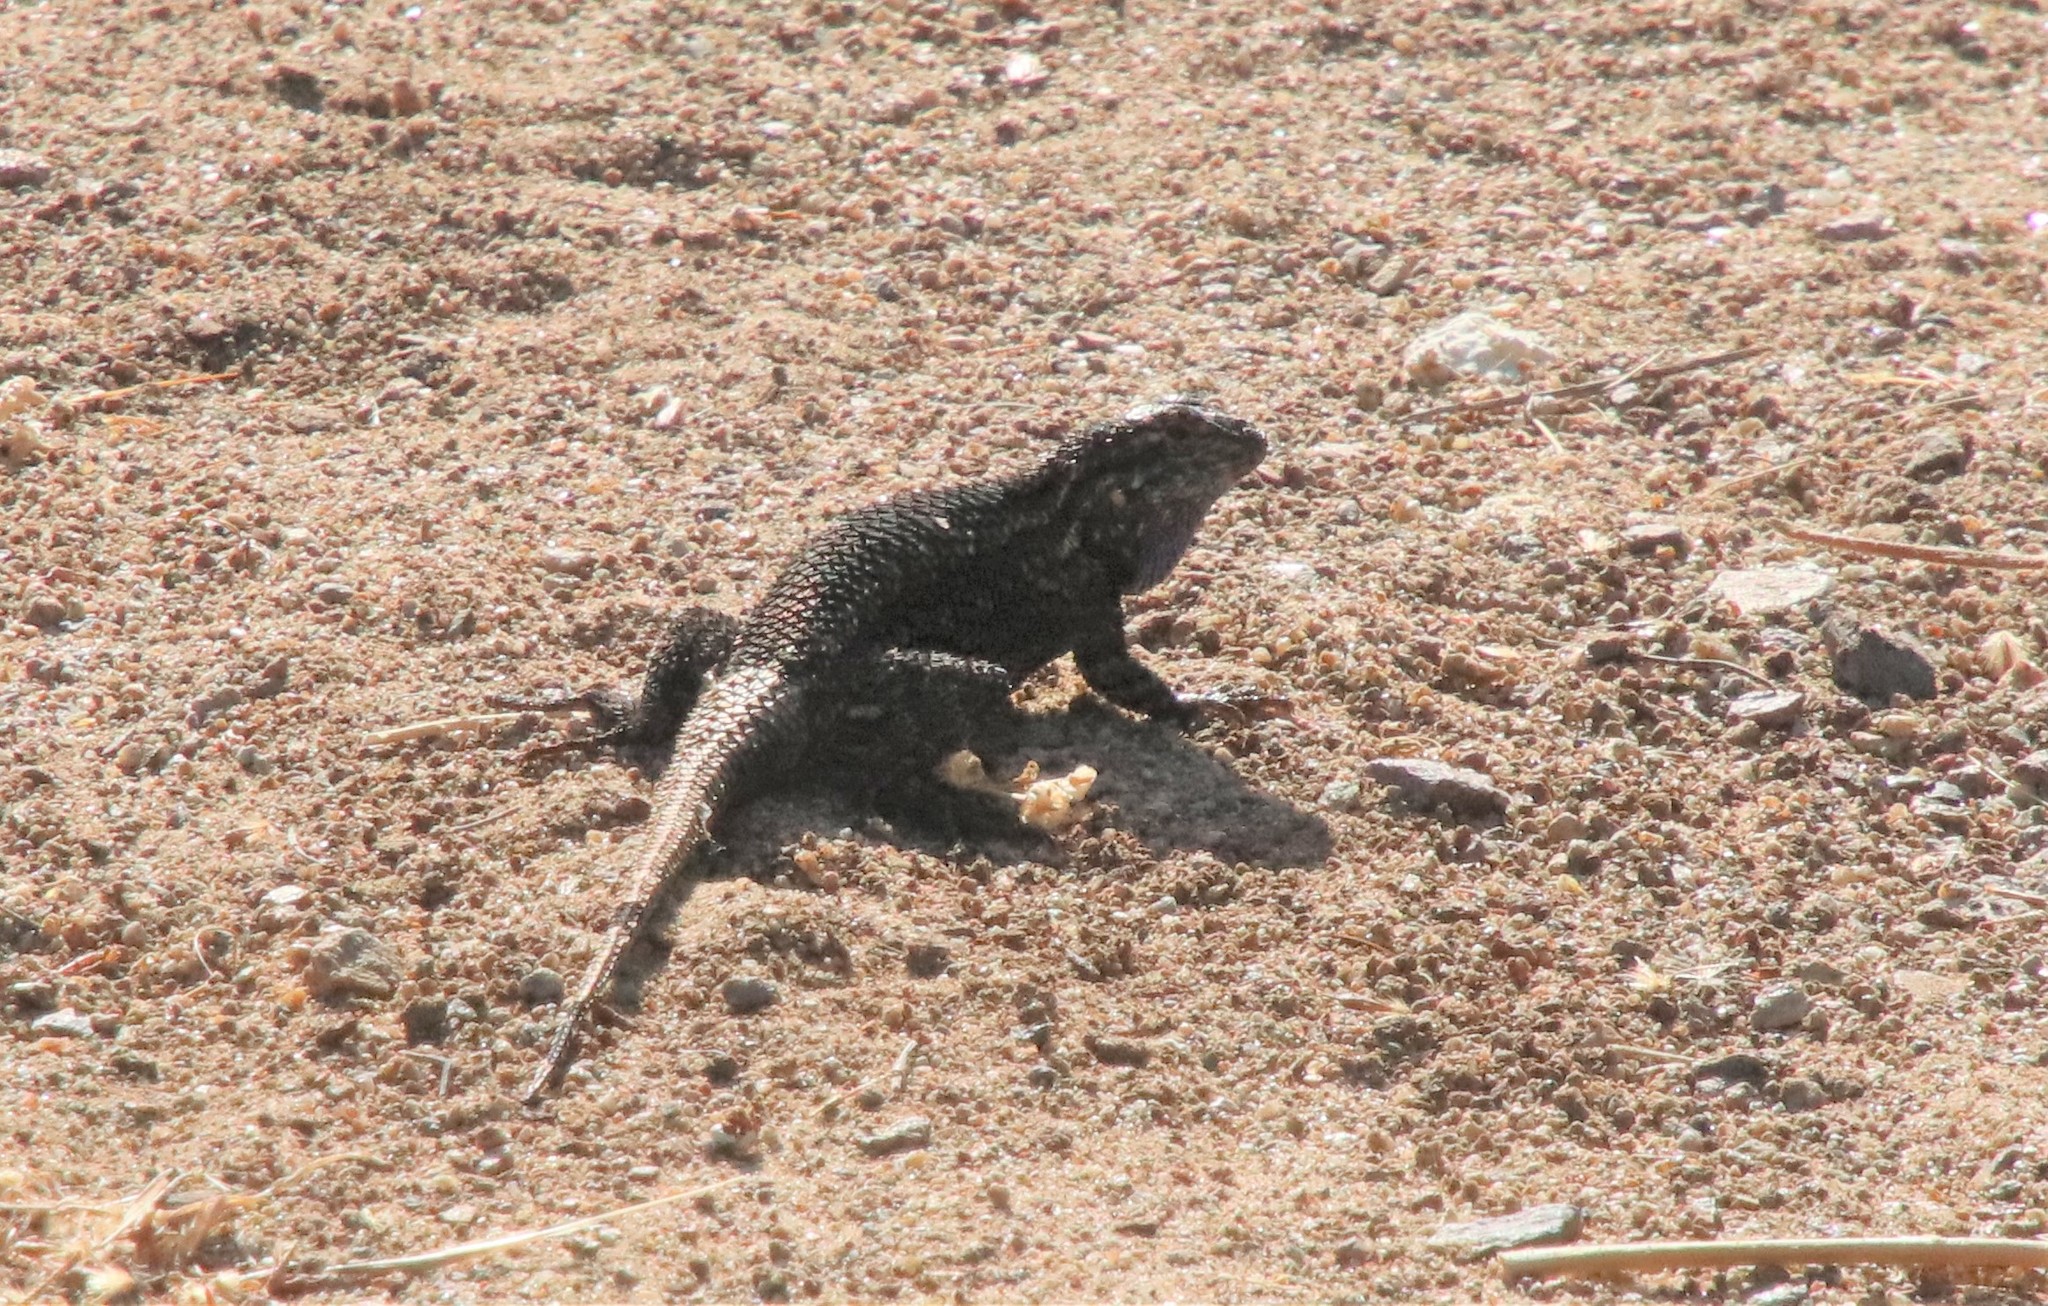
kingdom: Animalia
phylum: Chordata
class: Squamata
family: Phrynosomatidae
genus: Sceloporus
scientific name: Sceloporus occidentalis
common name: Western fence lizard
